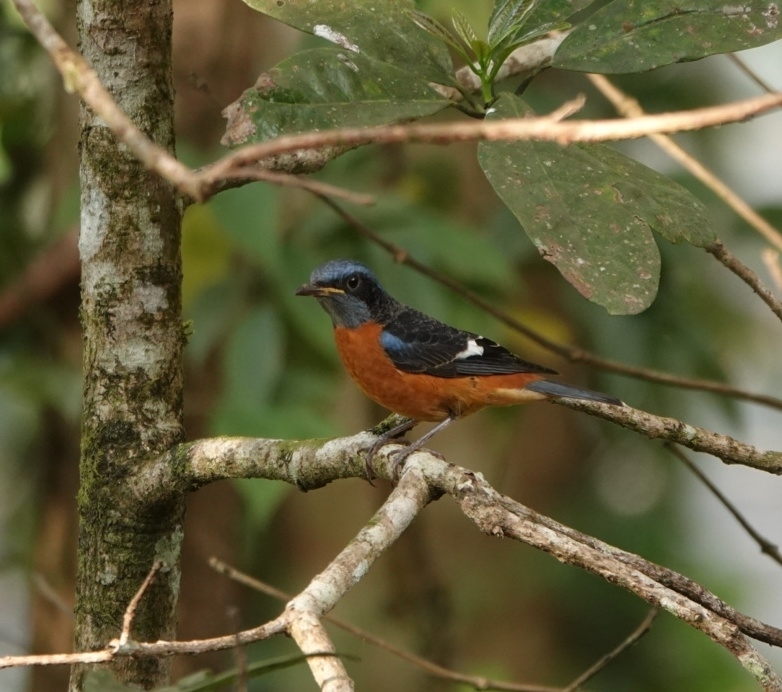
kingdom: Animalia
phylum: Chordata
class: Aves
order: Passeriformes
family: Muscicapidae
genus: Monticola
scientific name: Monticola cinclorhynchus
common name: Blue-capped rock thrush
